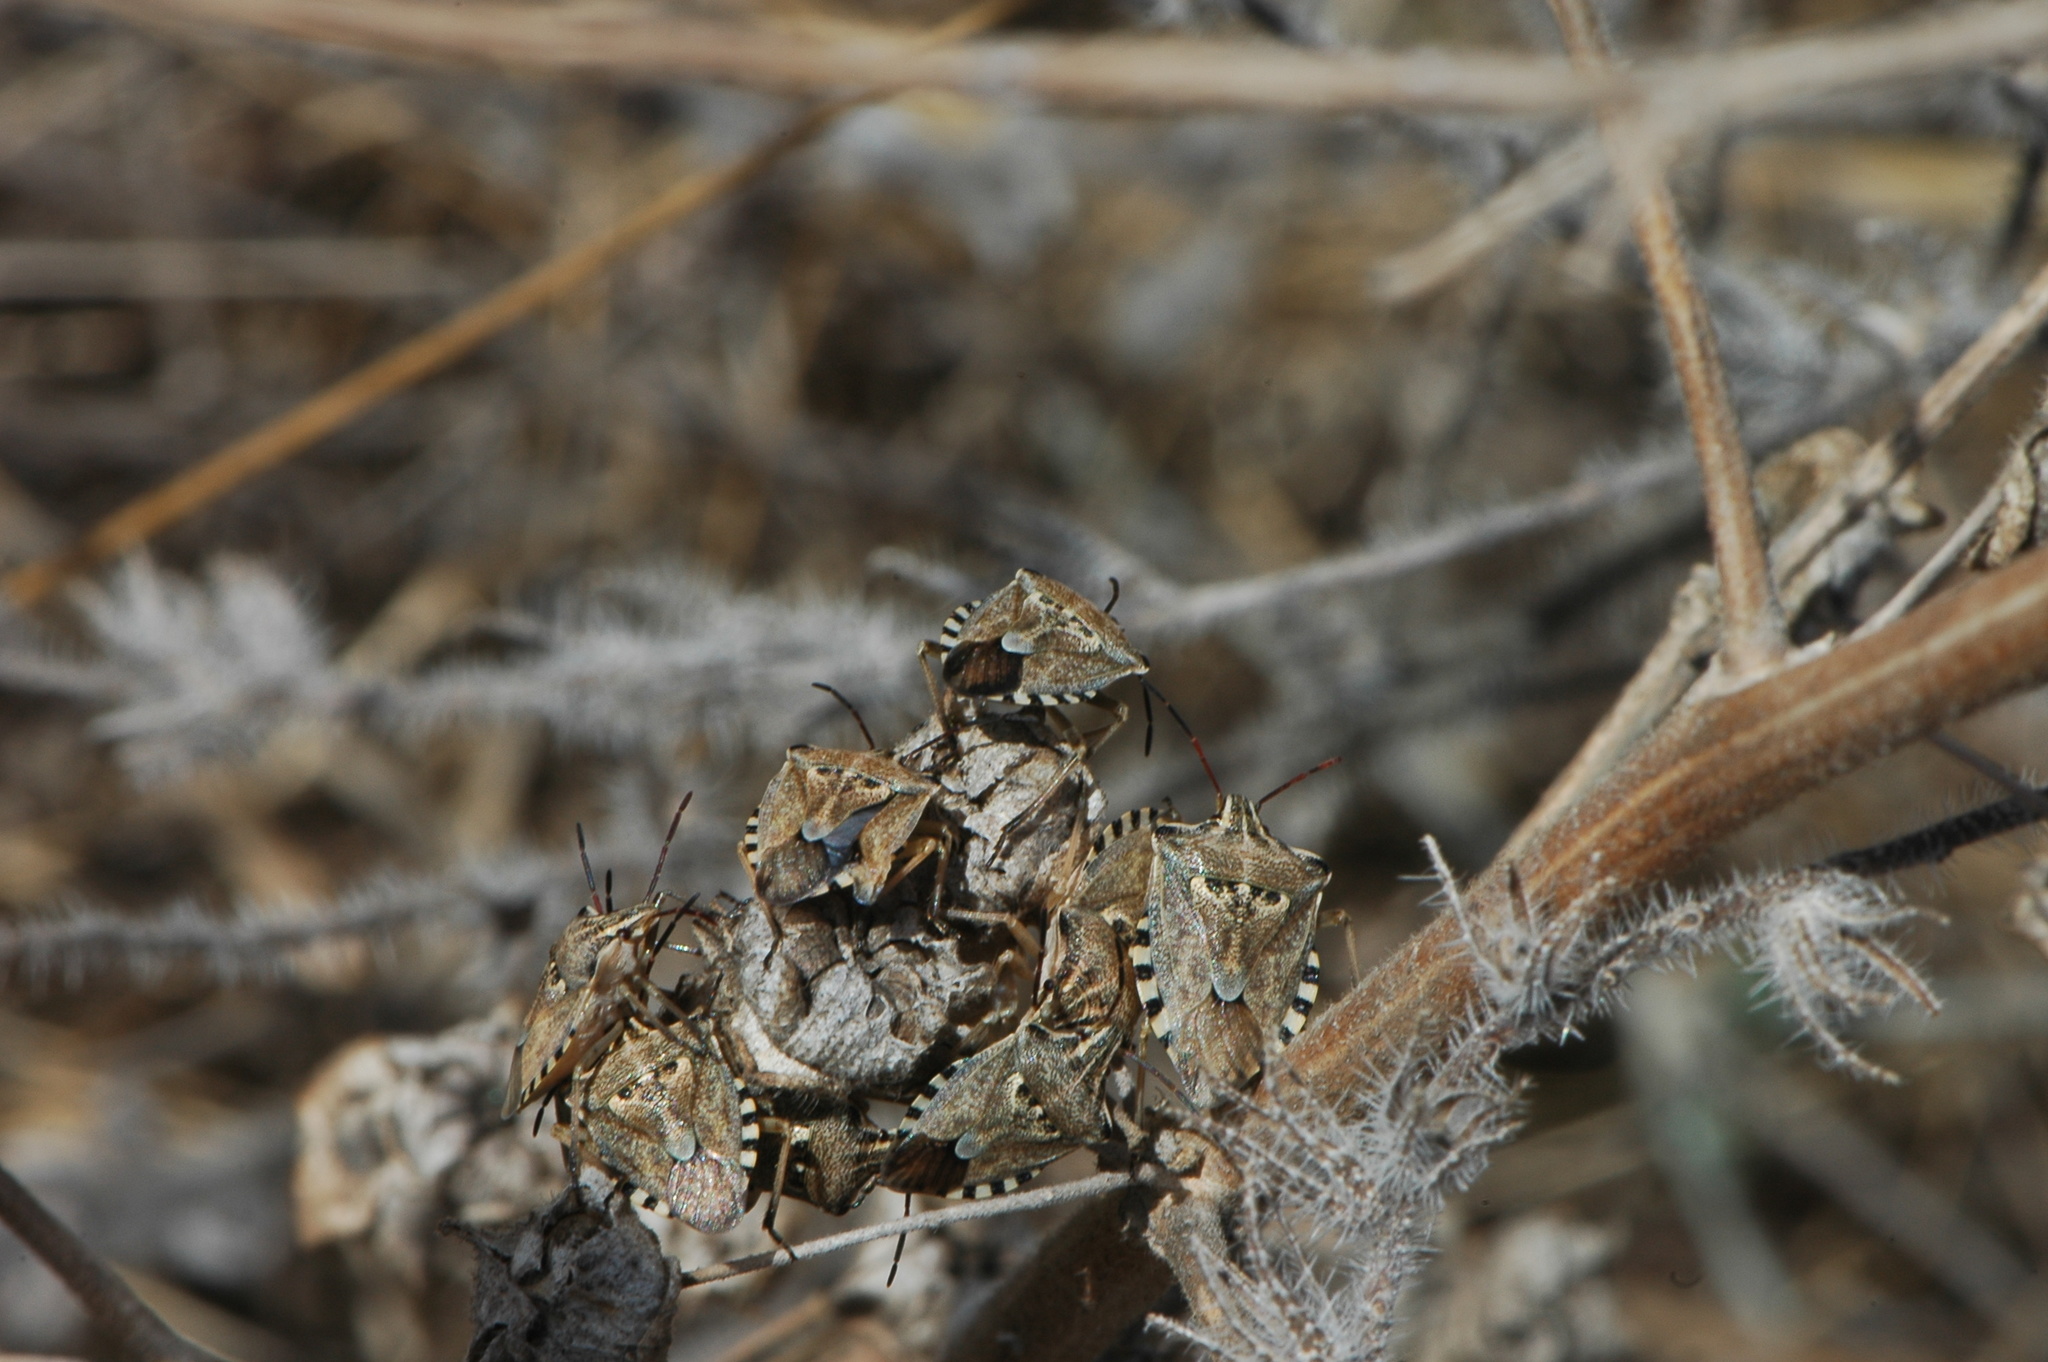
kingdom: Animalia
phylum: Arthropoda
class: Insecta
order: Hemiptera
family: Miridae
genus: Orthops
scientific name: Orthops kalmii
